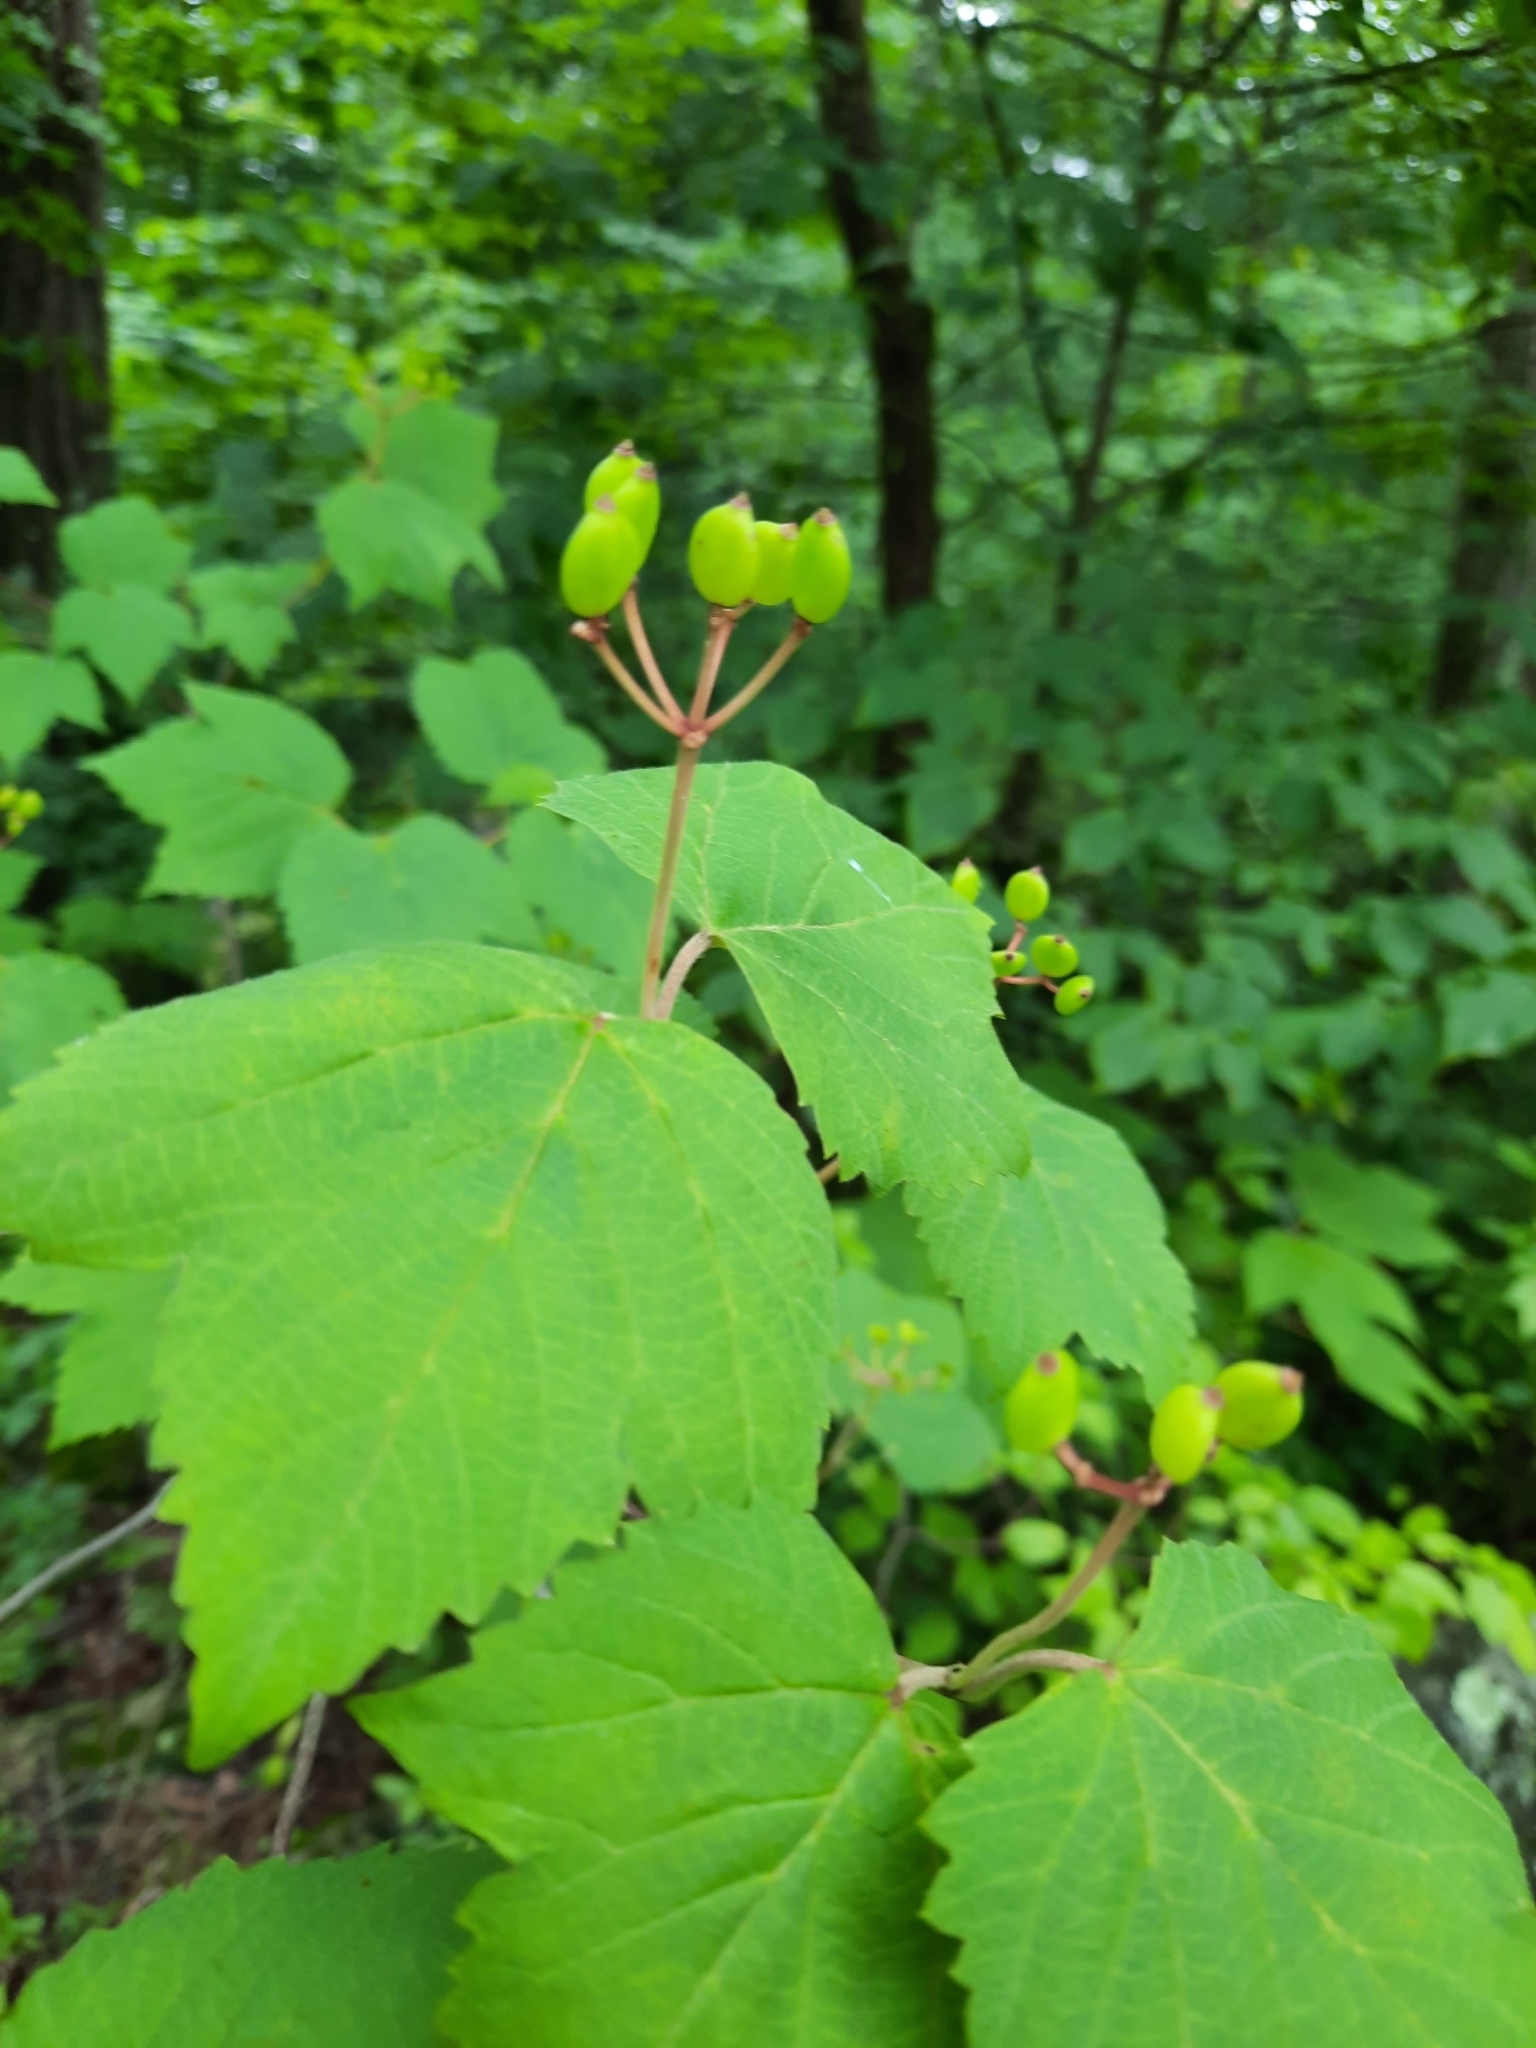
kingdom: Plantae
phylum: Tracheophyta
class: Magnoliopsida
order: Dipsacales
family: Viburnaceae
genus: Viburnum
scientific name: Viburnum acerifolium
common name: Dockmackie
